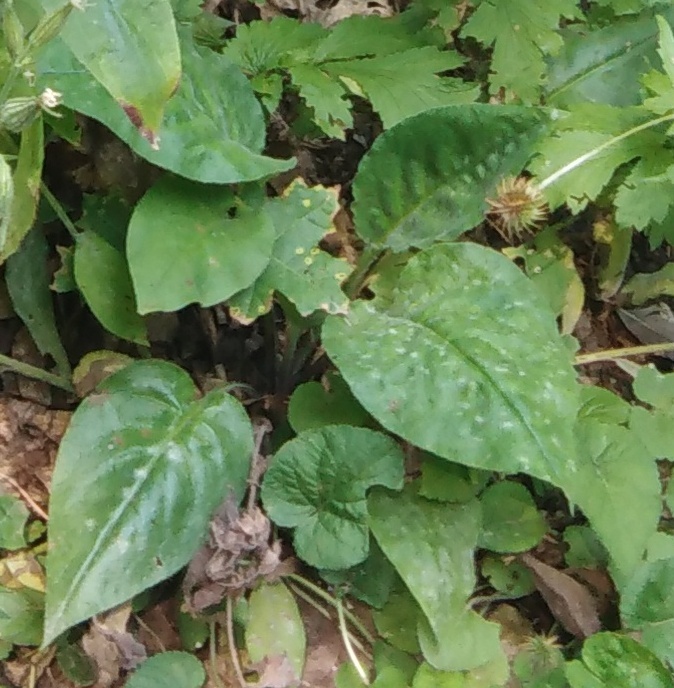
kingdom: Plantae
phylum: Tracheophyta
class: Magnoliopsida
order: Boraginales
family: Boraginaceae
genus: Pulmonaria
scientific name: Pulmonaria obscura
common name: Suffolk lungwort
